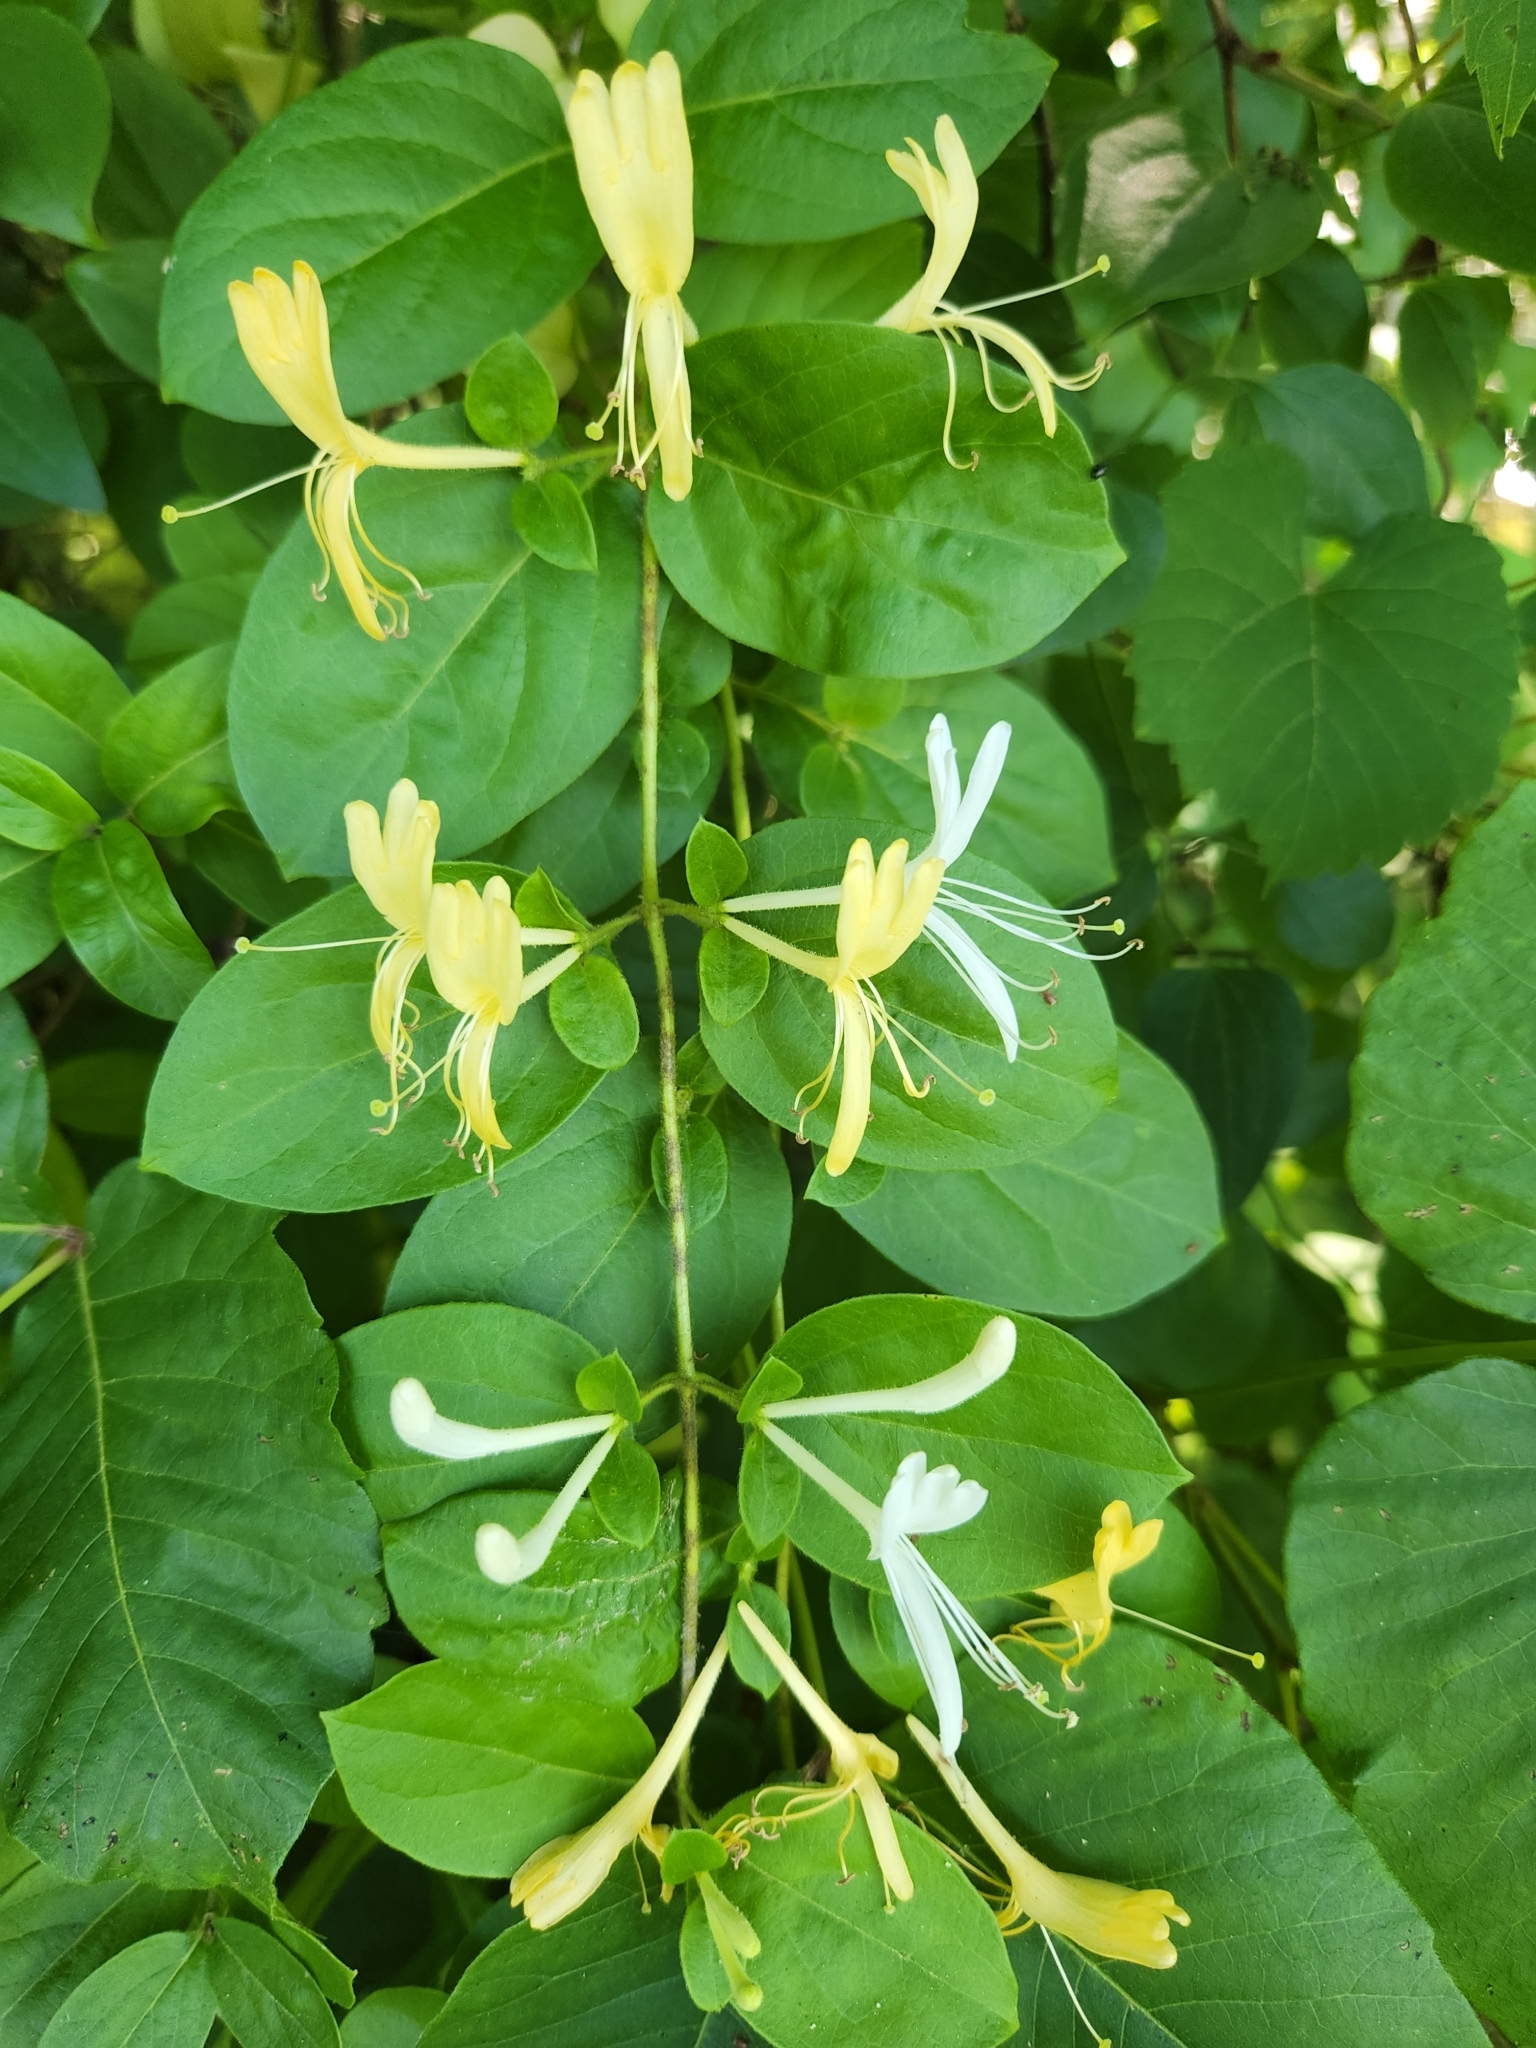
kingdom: Plantae
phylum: Tracheophyta
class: Magnoliopsida
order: Dipsacales
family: Caprifoliaceae
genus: Lonicera
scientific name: Lonicera japonica
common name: Japanese honeysuckle
